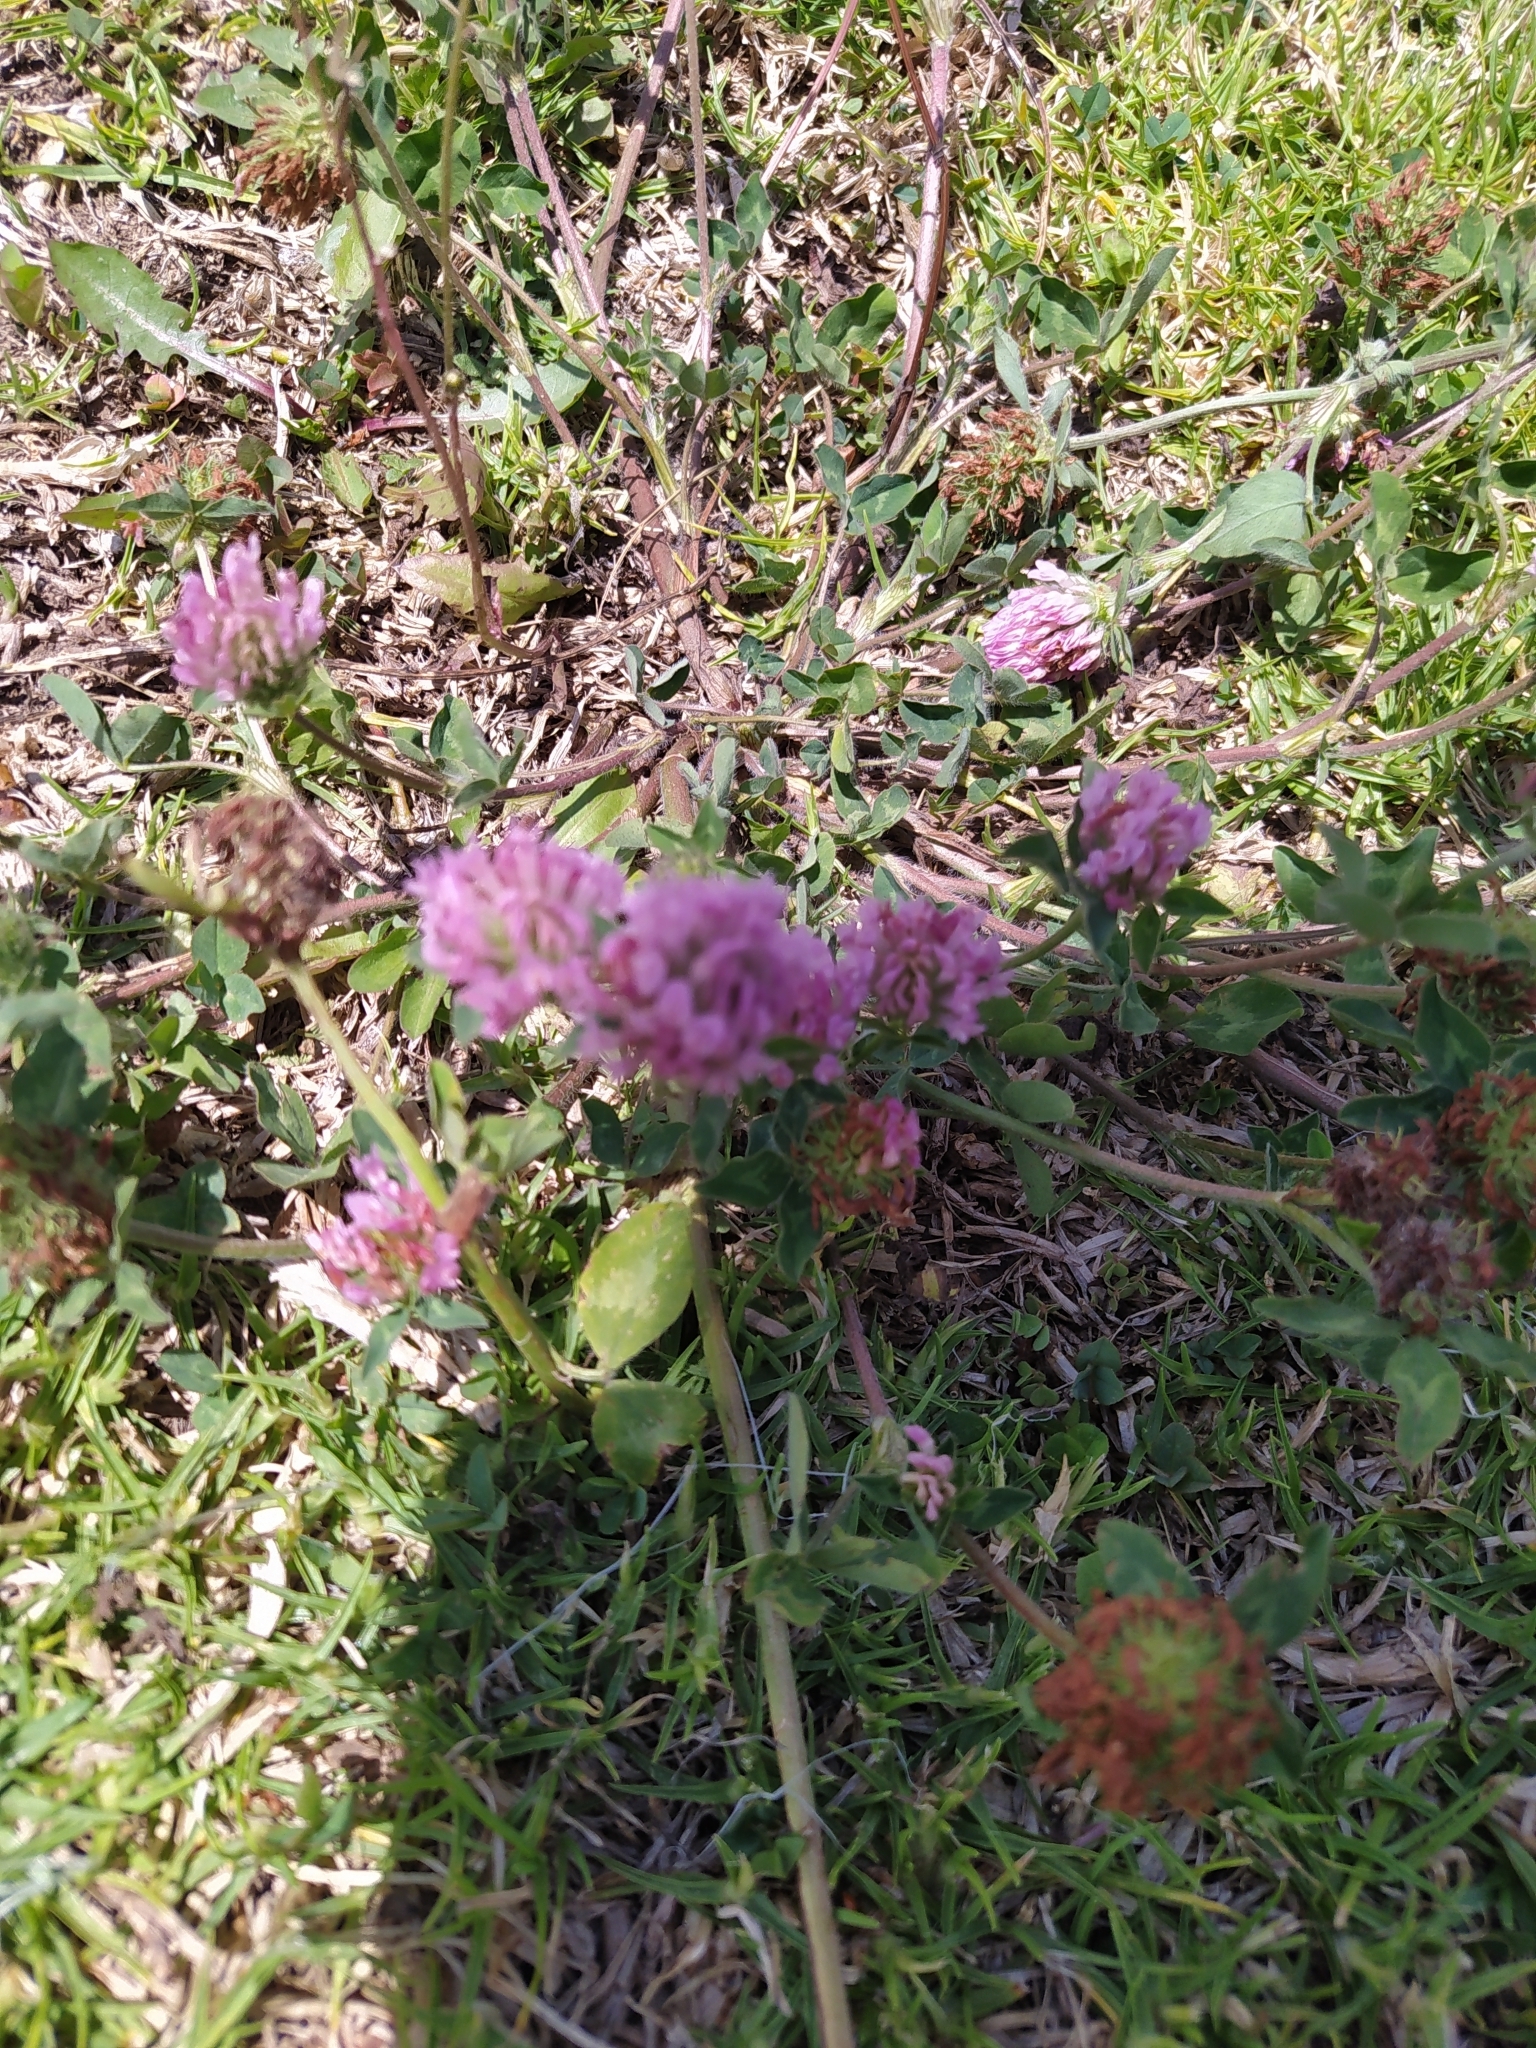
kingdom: Plantae
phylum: Tracheophyta
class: Magnoliopsida
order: Fabales
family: Fabaceae
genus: Trifolium
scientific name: Trifolium pratense
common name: Red clover
